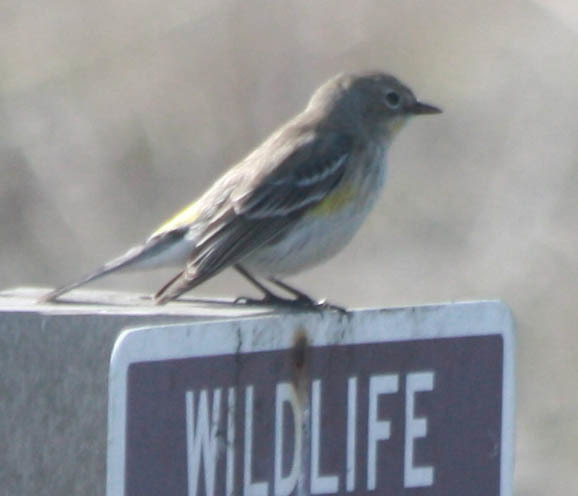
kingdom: Animalia
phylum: Chordata
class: Aves
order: Passeriformes
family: Parulidae
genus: Setophaga
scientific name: Setophaga coronata
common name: Myrtle warbler
